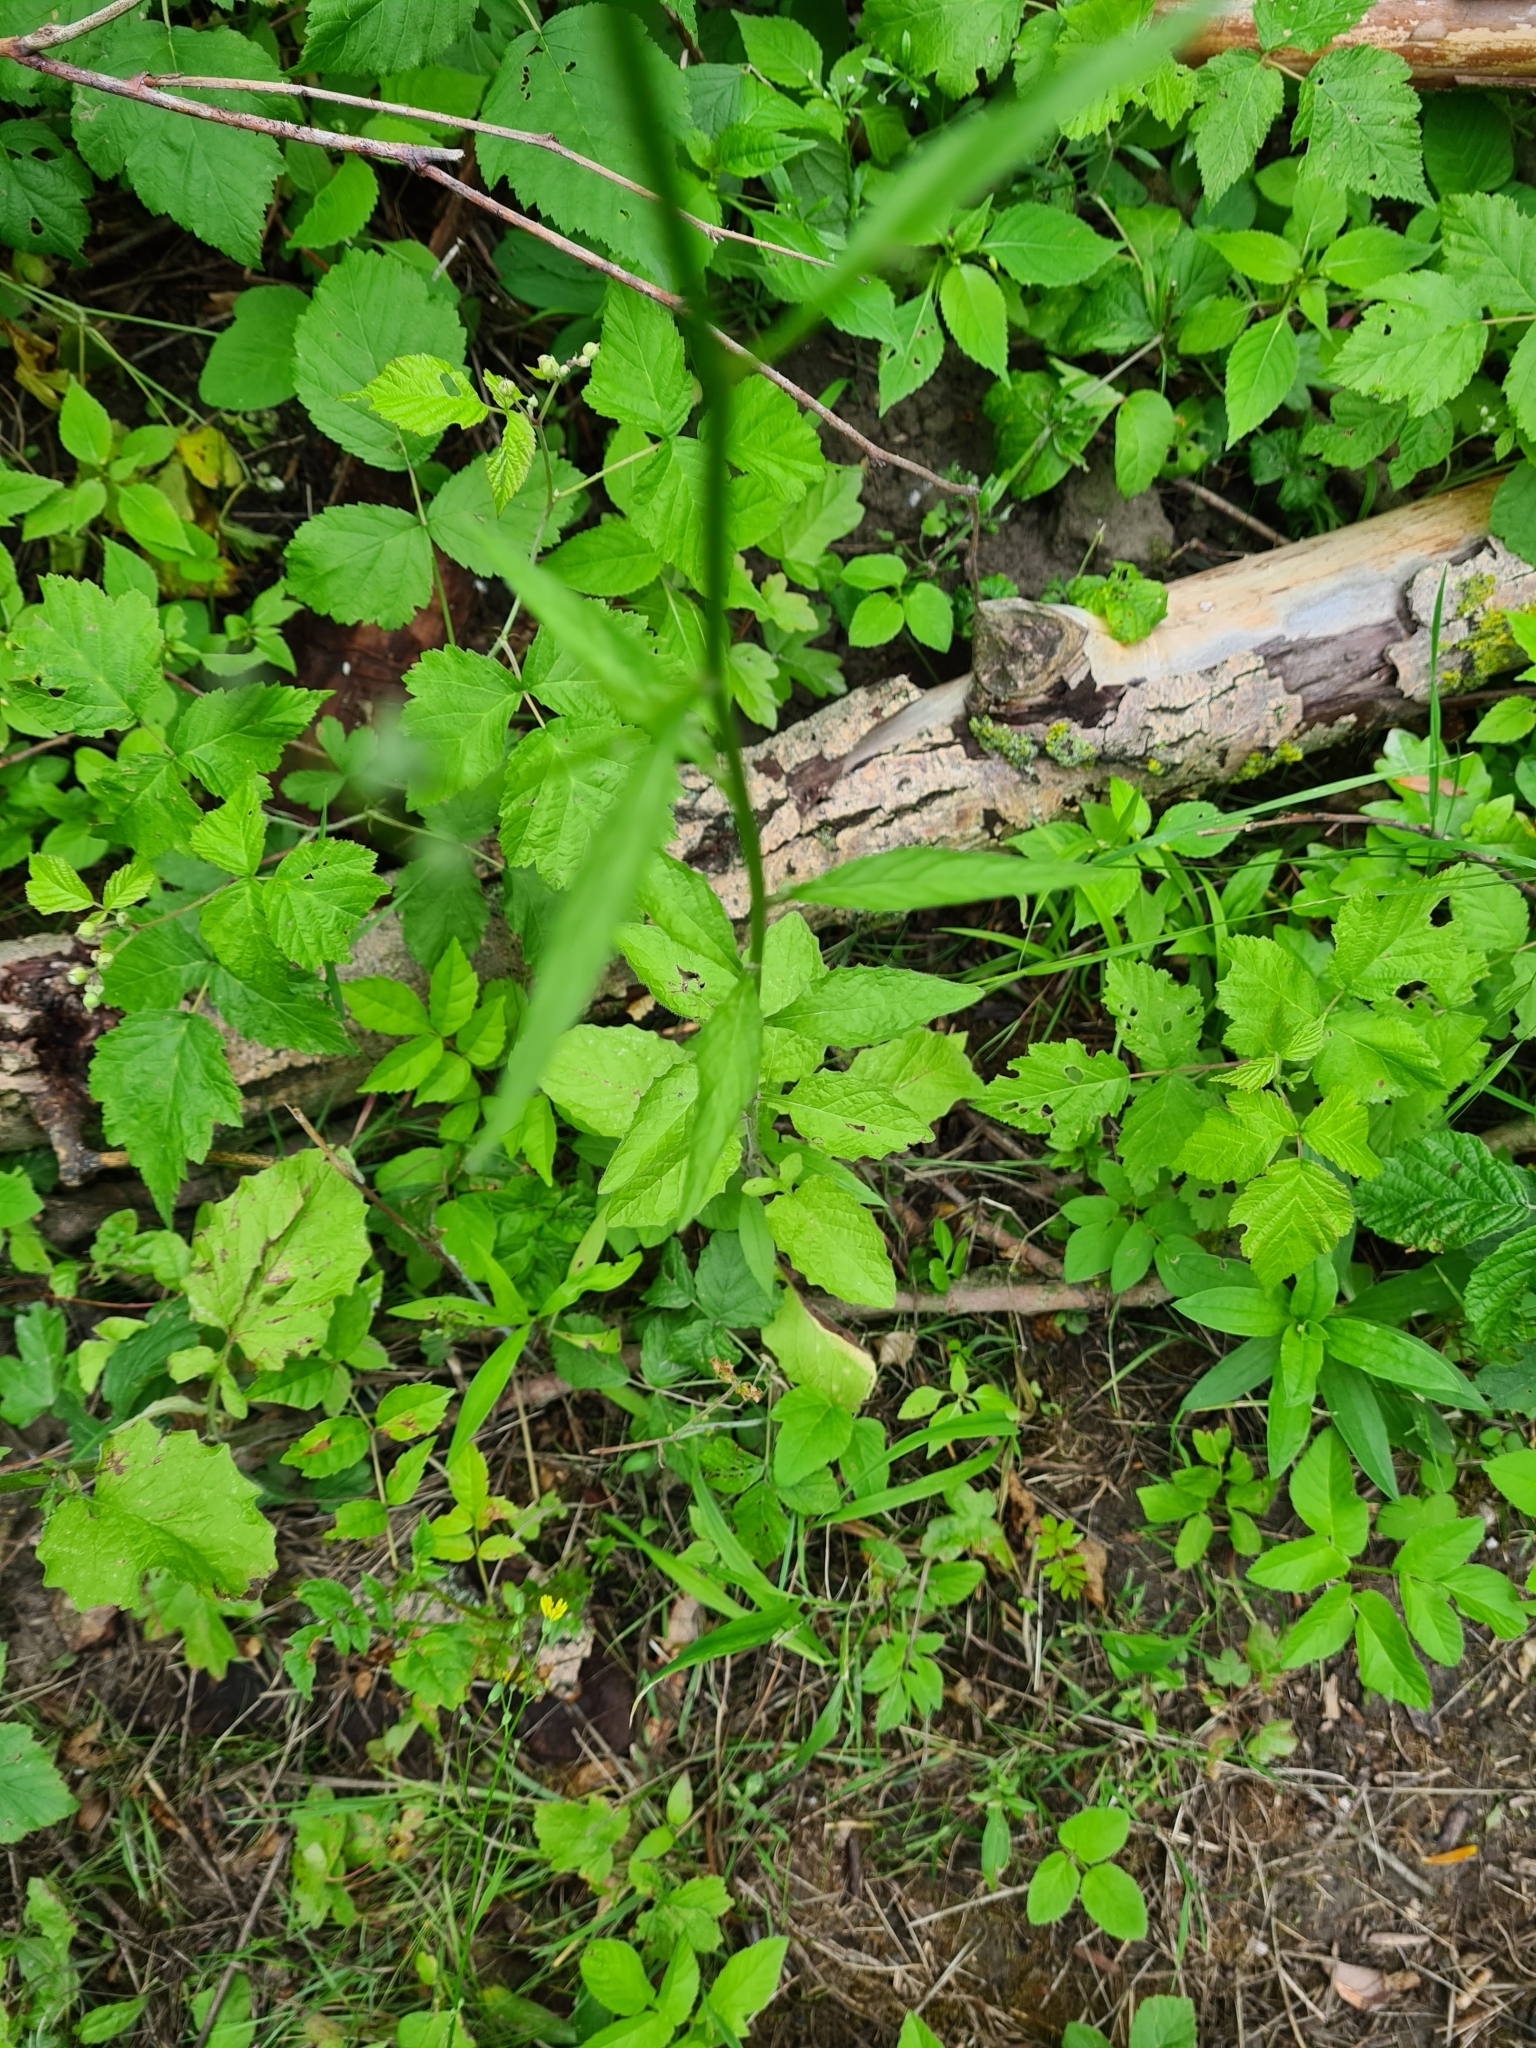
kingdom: Plantae
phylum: Tracheophyta
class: Magnoliopsida
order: Asterales
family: Asteraceae
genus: Lapsana
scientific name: Lapsana communis
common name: Nipplewort
